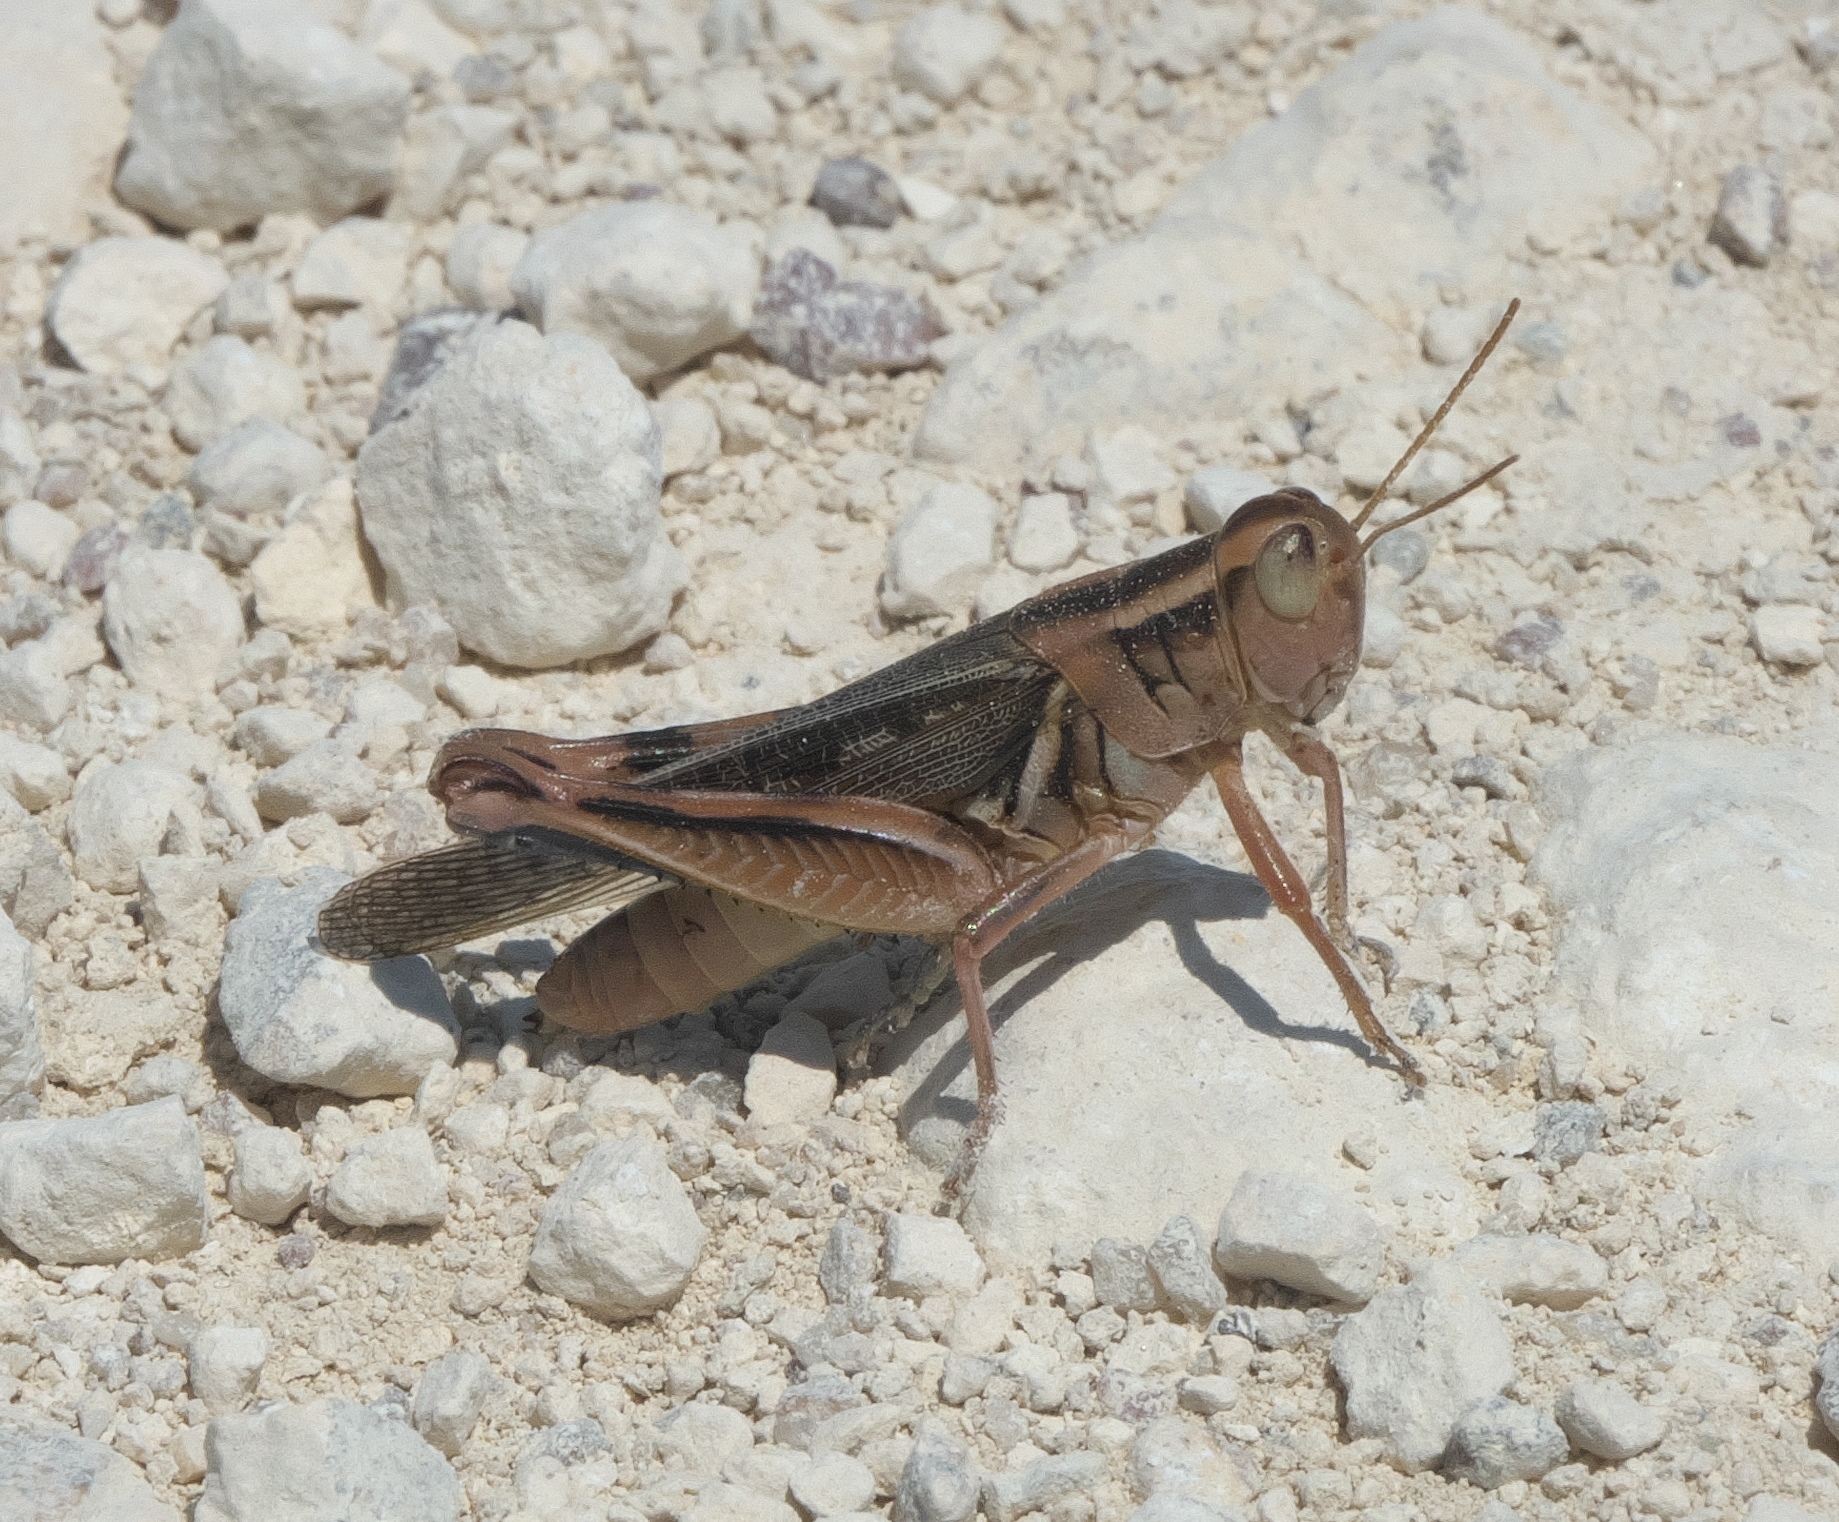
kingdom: Animalia
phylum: Arthropoda
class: Insecta
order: Orthoptera
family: Acrididae
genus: Melanoplus
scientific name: Melanoplus packardii
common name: Packard's grasshopper
